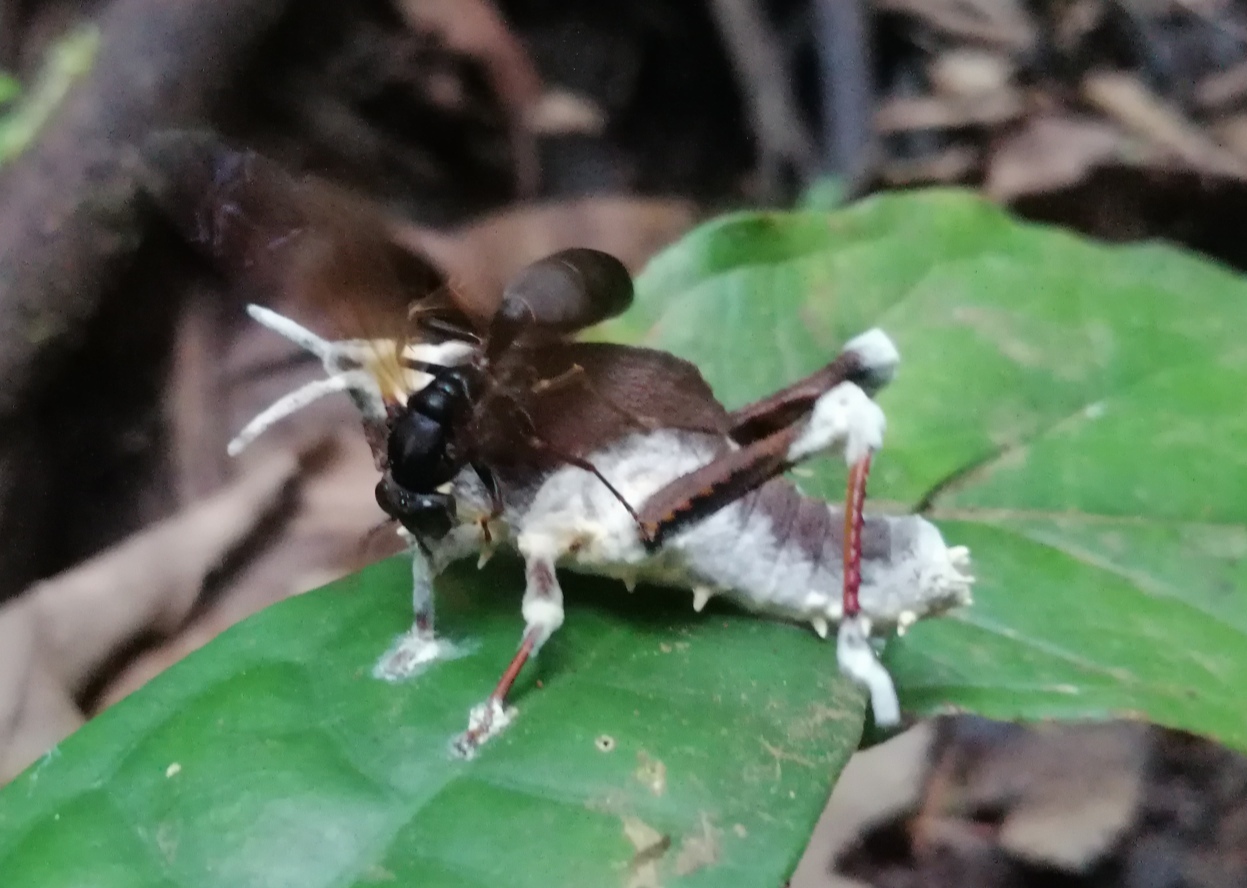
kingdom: Fungi
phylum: Ascomycota
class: Sordariomycetes
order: Hypocreales
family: Cordycipitaceae
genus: Beauveria
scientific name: Beauveria locustiphila
